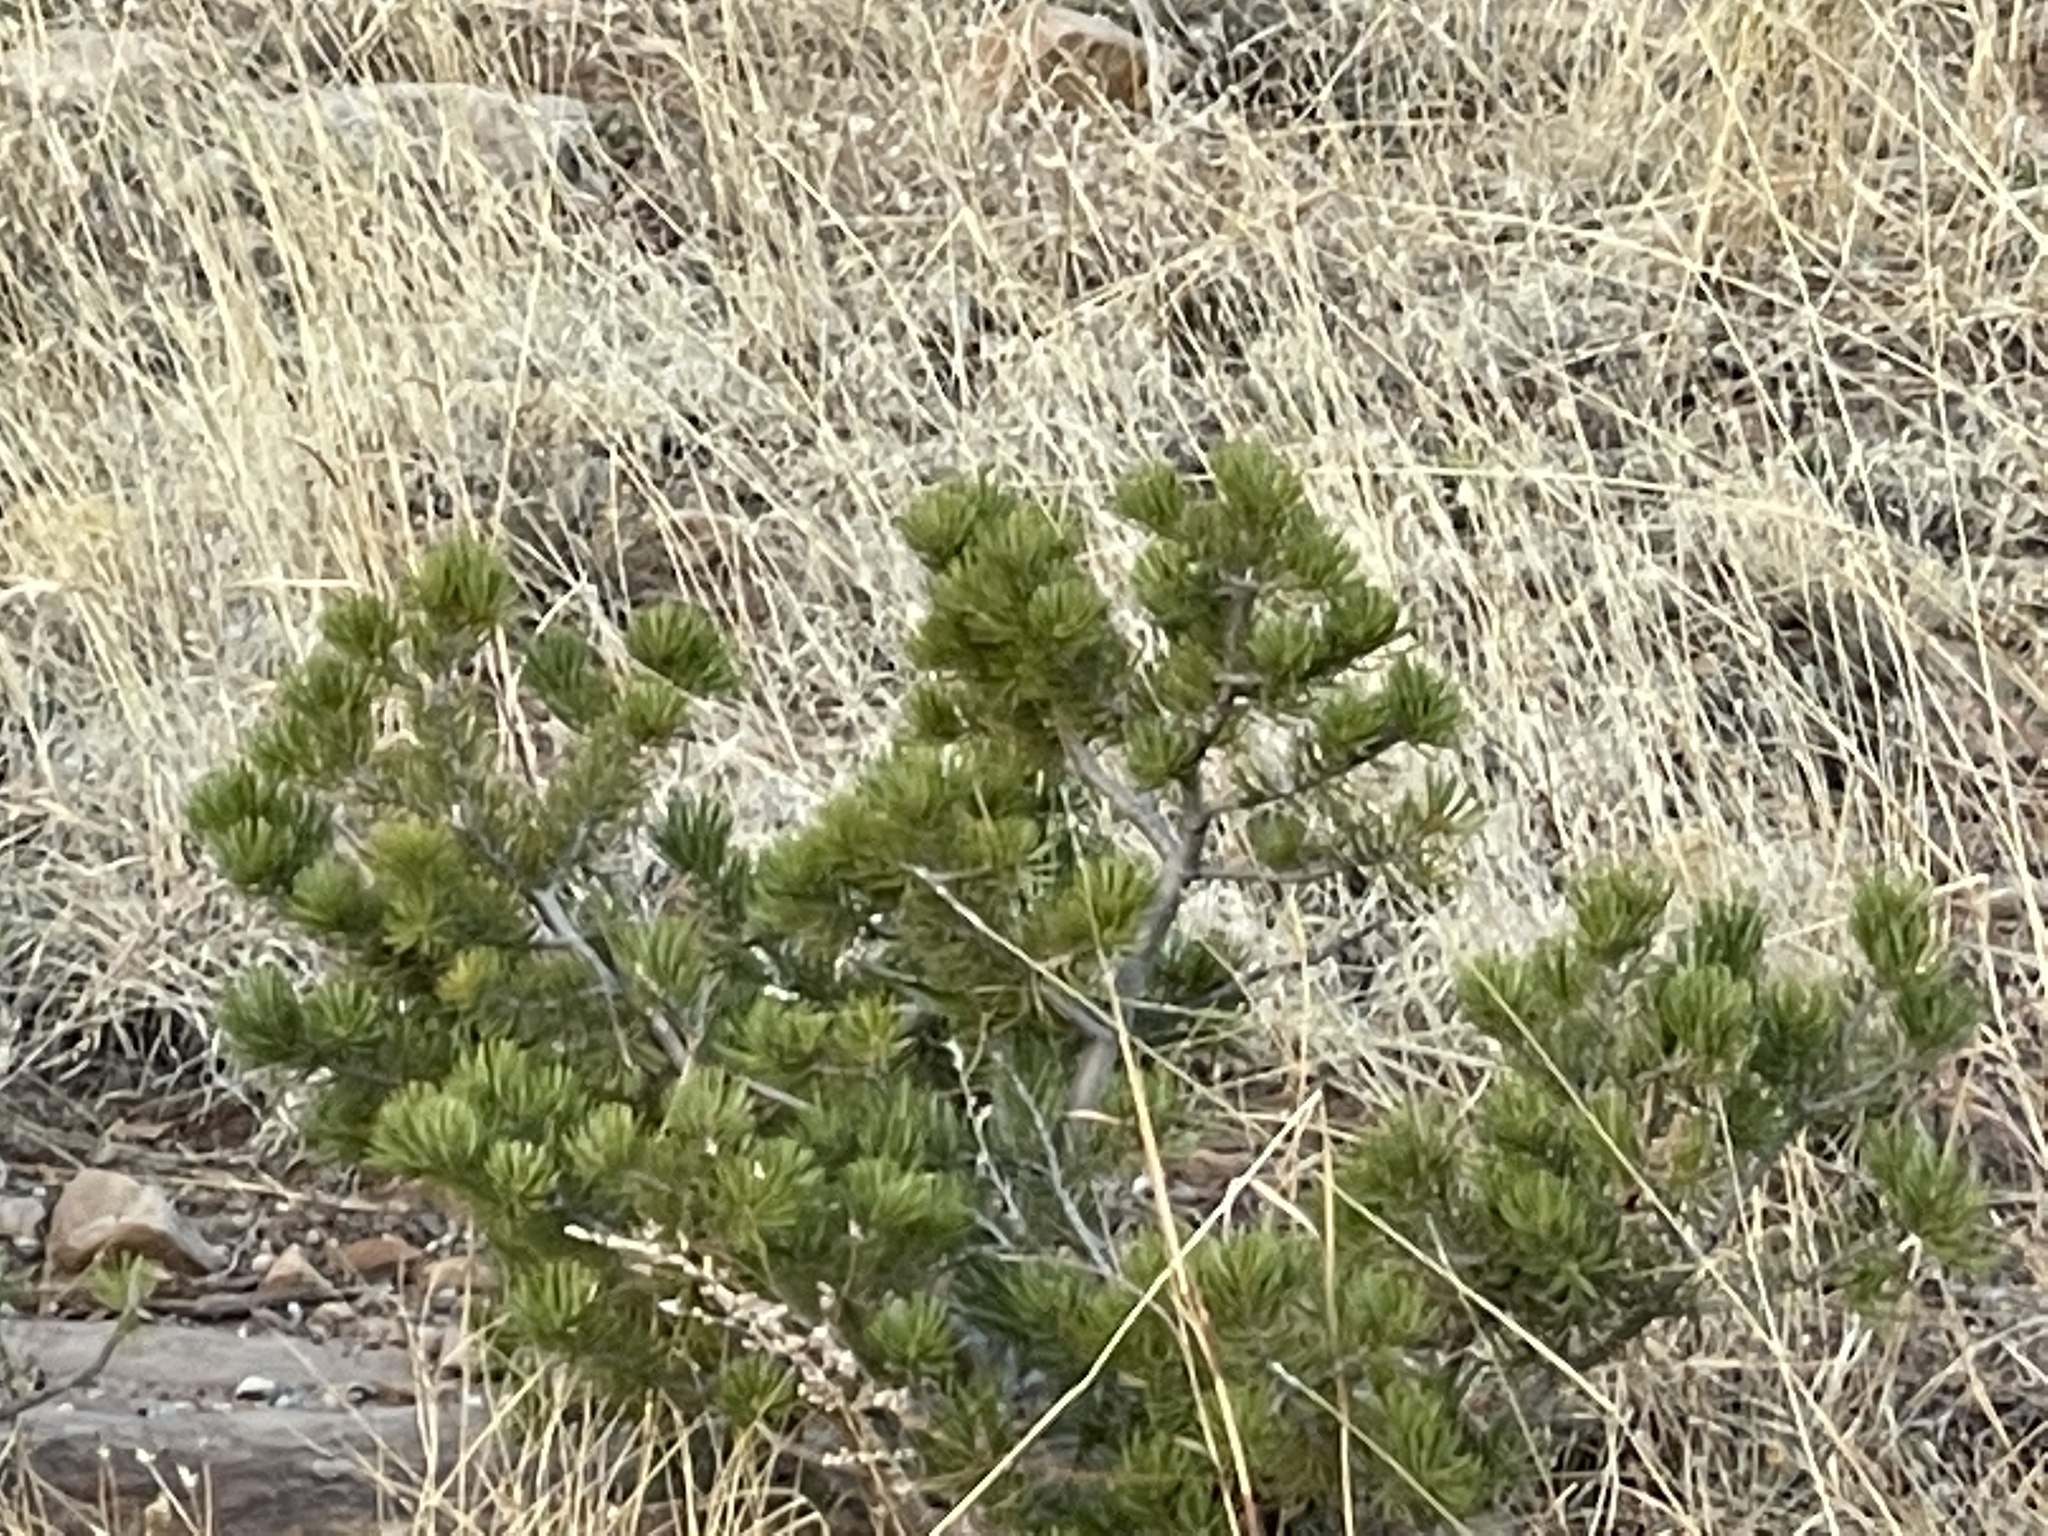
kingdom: Plantae
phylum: Tracheophyta
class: Pinopsida
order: Pinales
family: Pinaceae
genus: Pinus
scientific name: Pinus edulis
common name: Colorado pinyon
